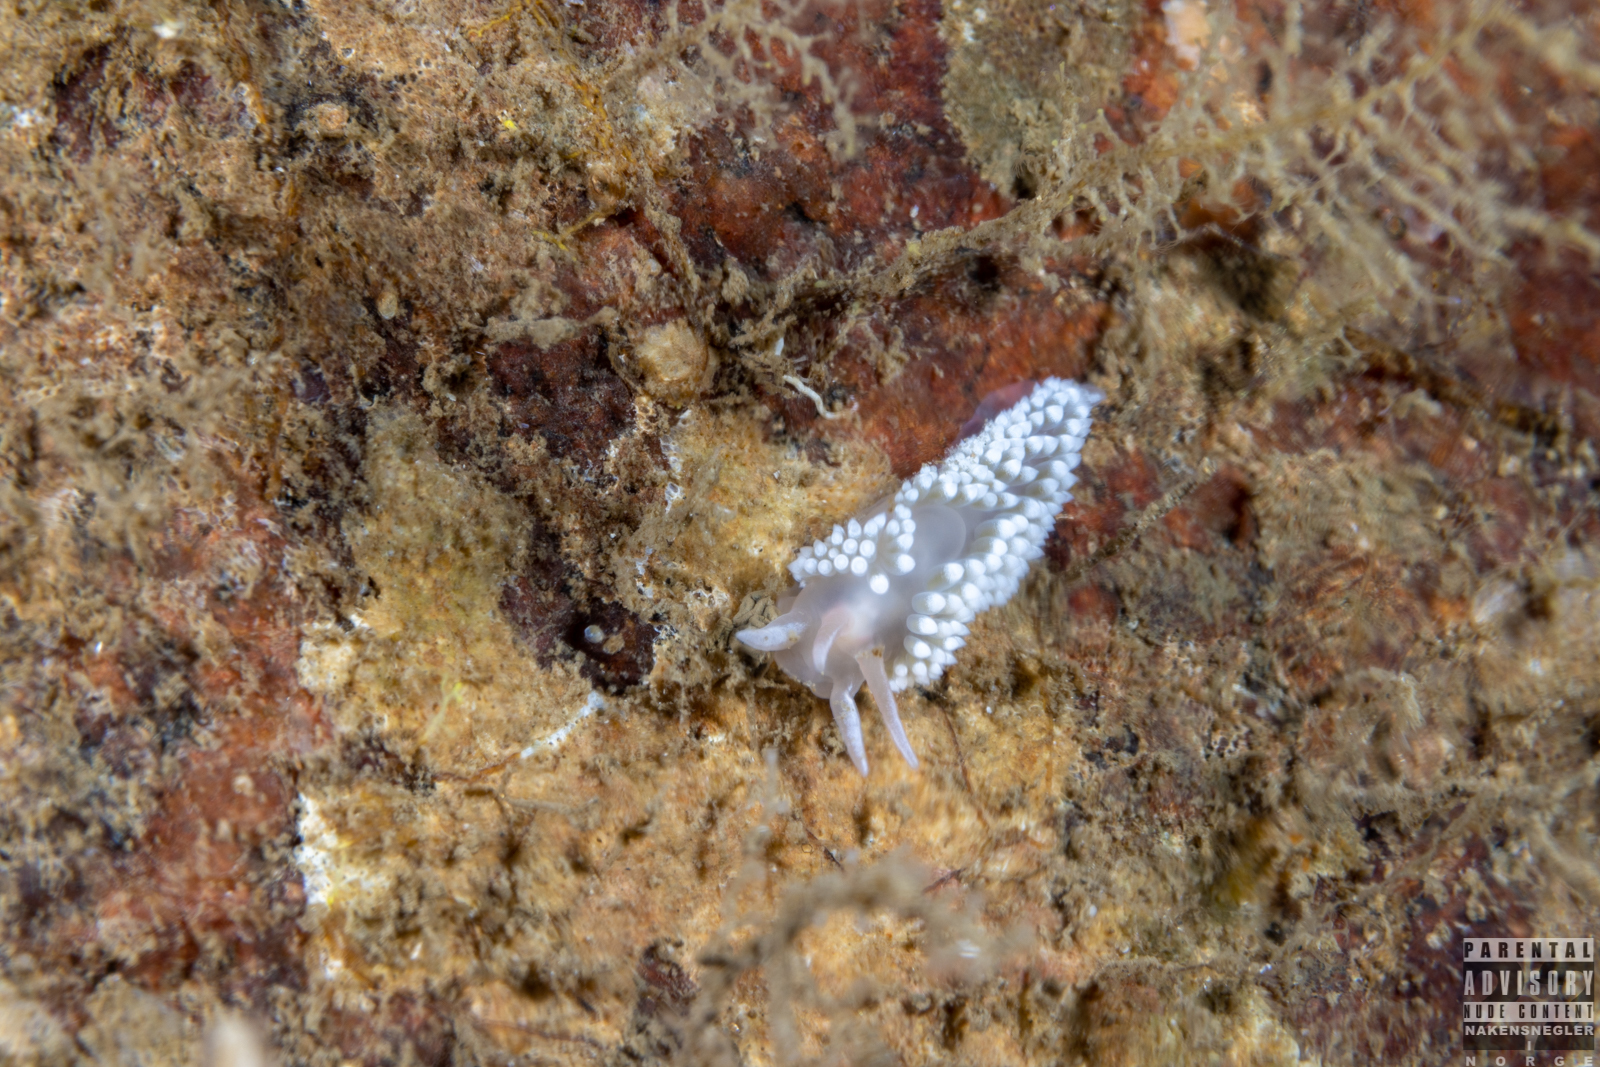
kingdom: Animalia
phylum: Mollusca
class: Gastropoda
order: Nudibranchia
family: Coryphellidae
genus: Coryphella
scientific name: Coryphella verrucosa
